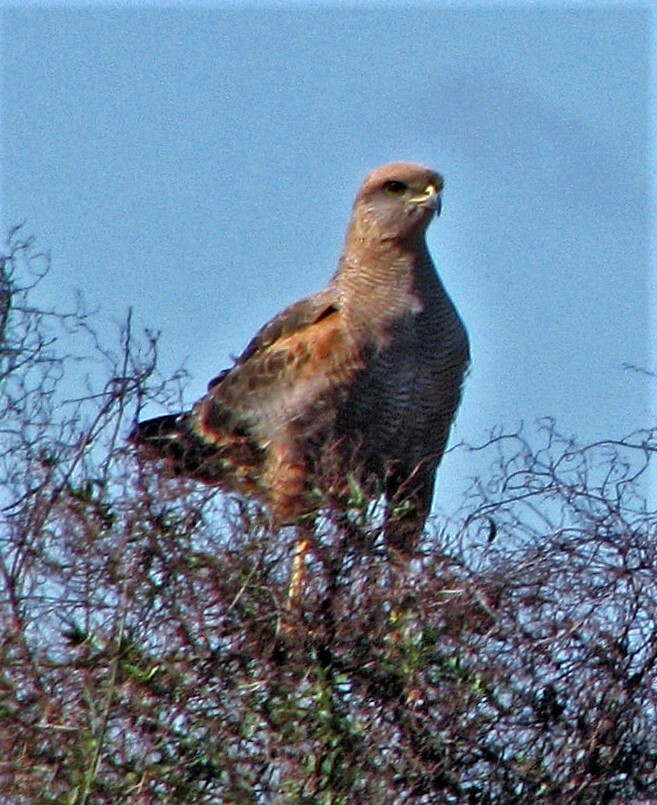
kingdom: Animalia
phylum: Chordata
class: Aves
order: Accipitriformes
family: Accipitridae
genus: Buteogallus
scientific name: Buteogallus meridionalis
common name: Savanna hawk
